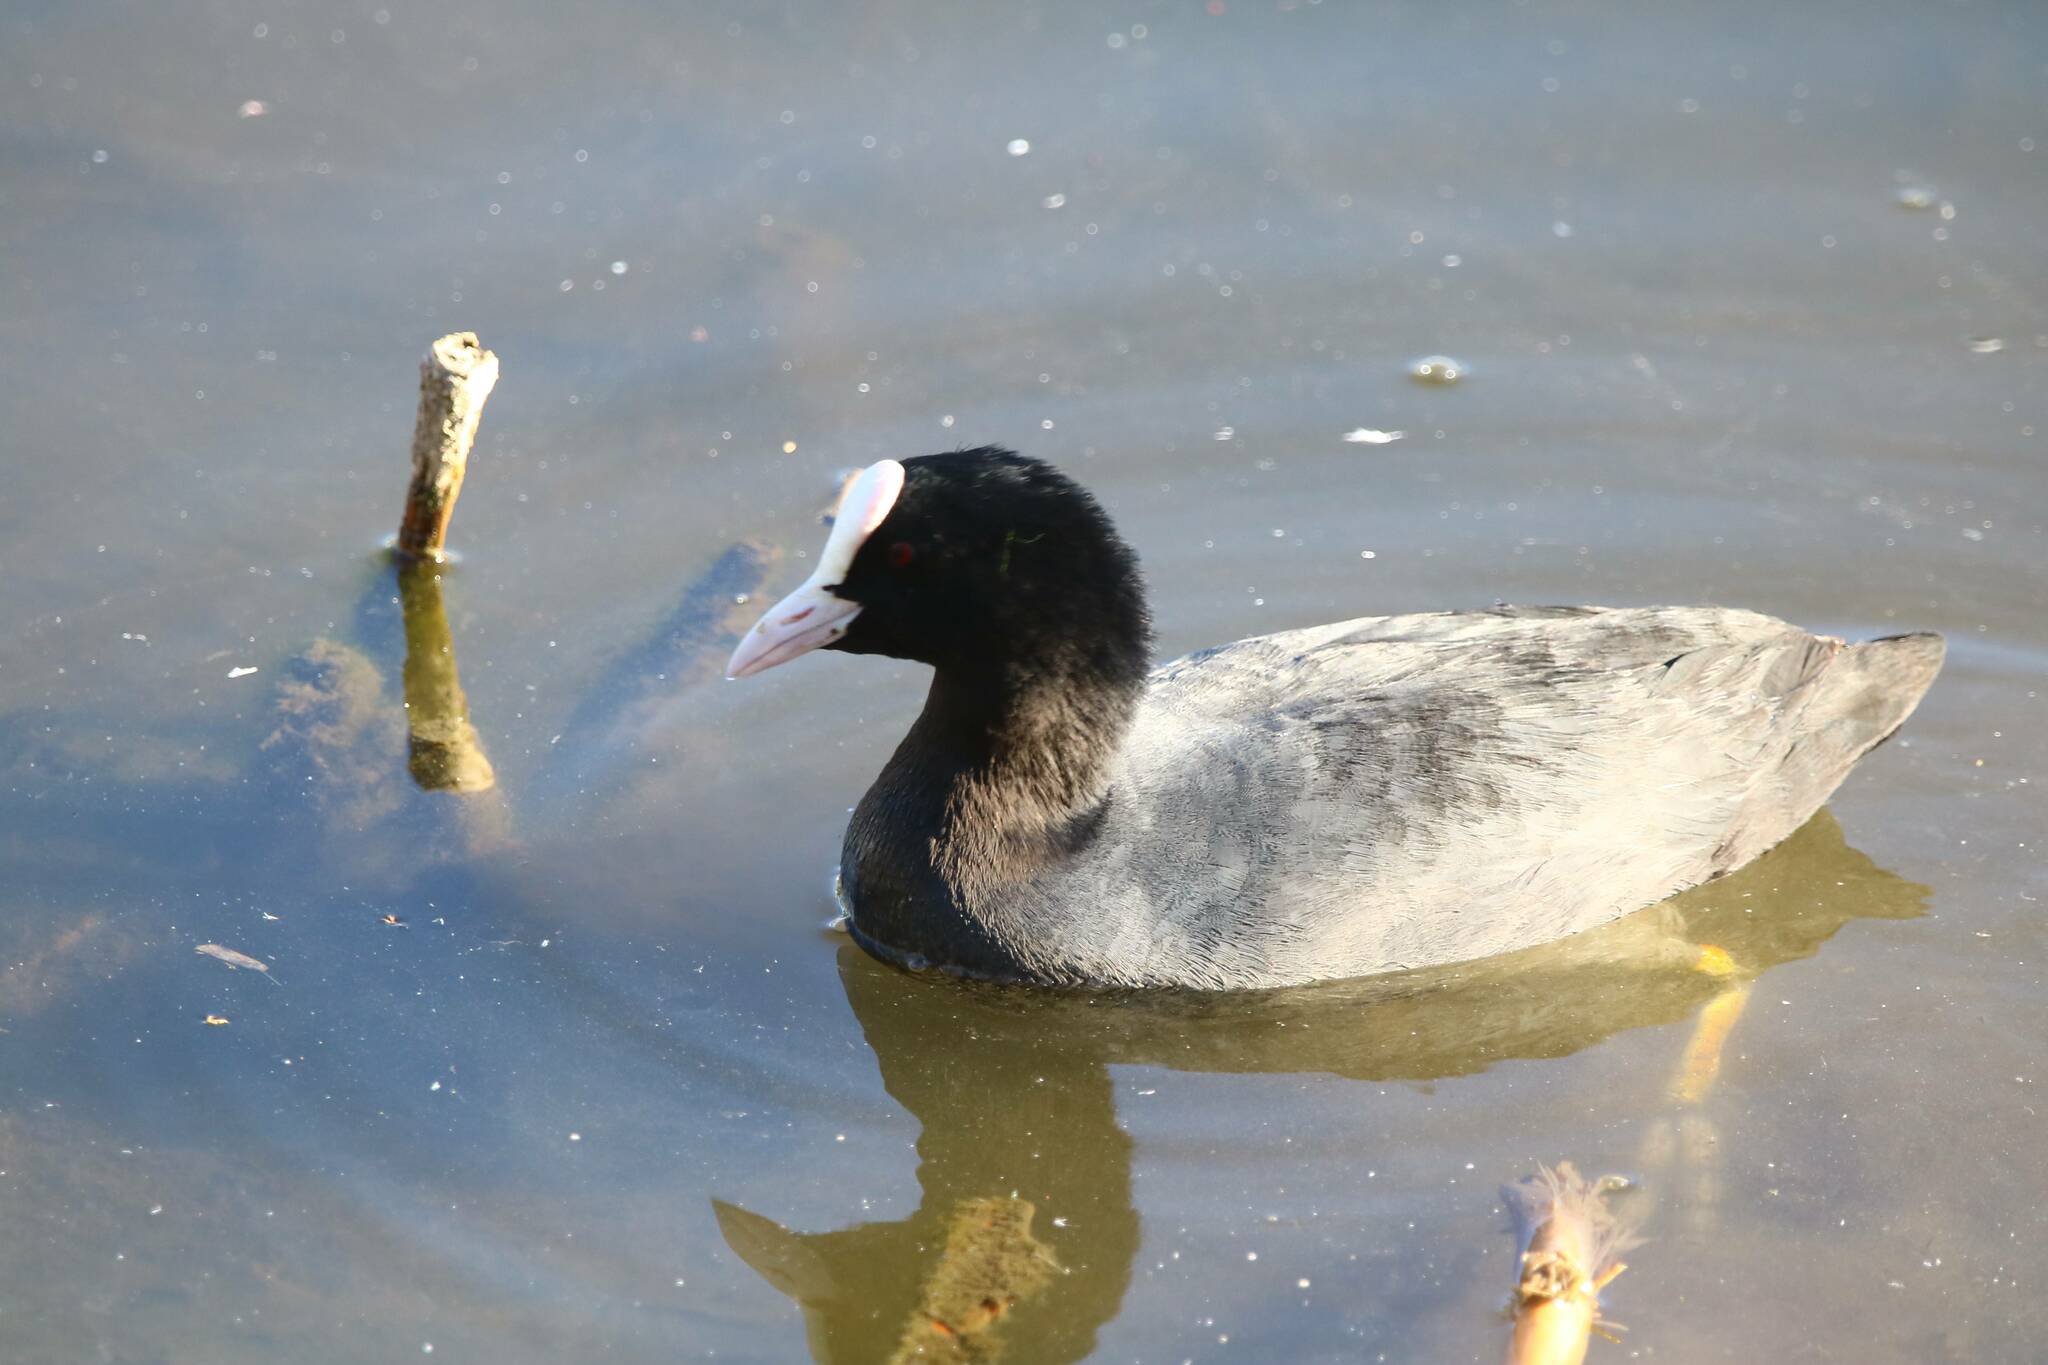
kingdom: Animalia
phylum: Chordata
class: Aves
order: Gruiformes
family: Rallidae
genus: Fulica
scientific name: Fulica atra
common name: Eurasian coot
